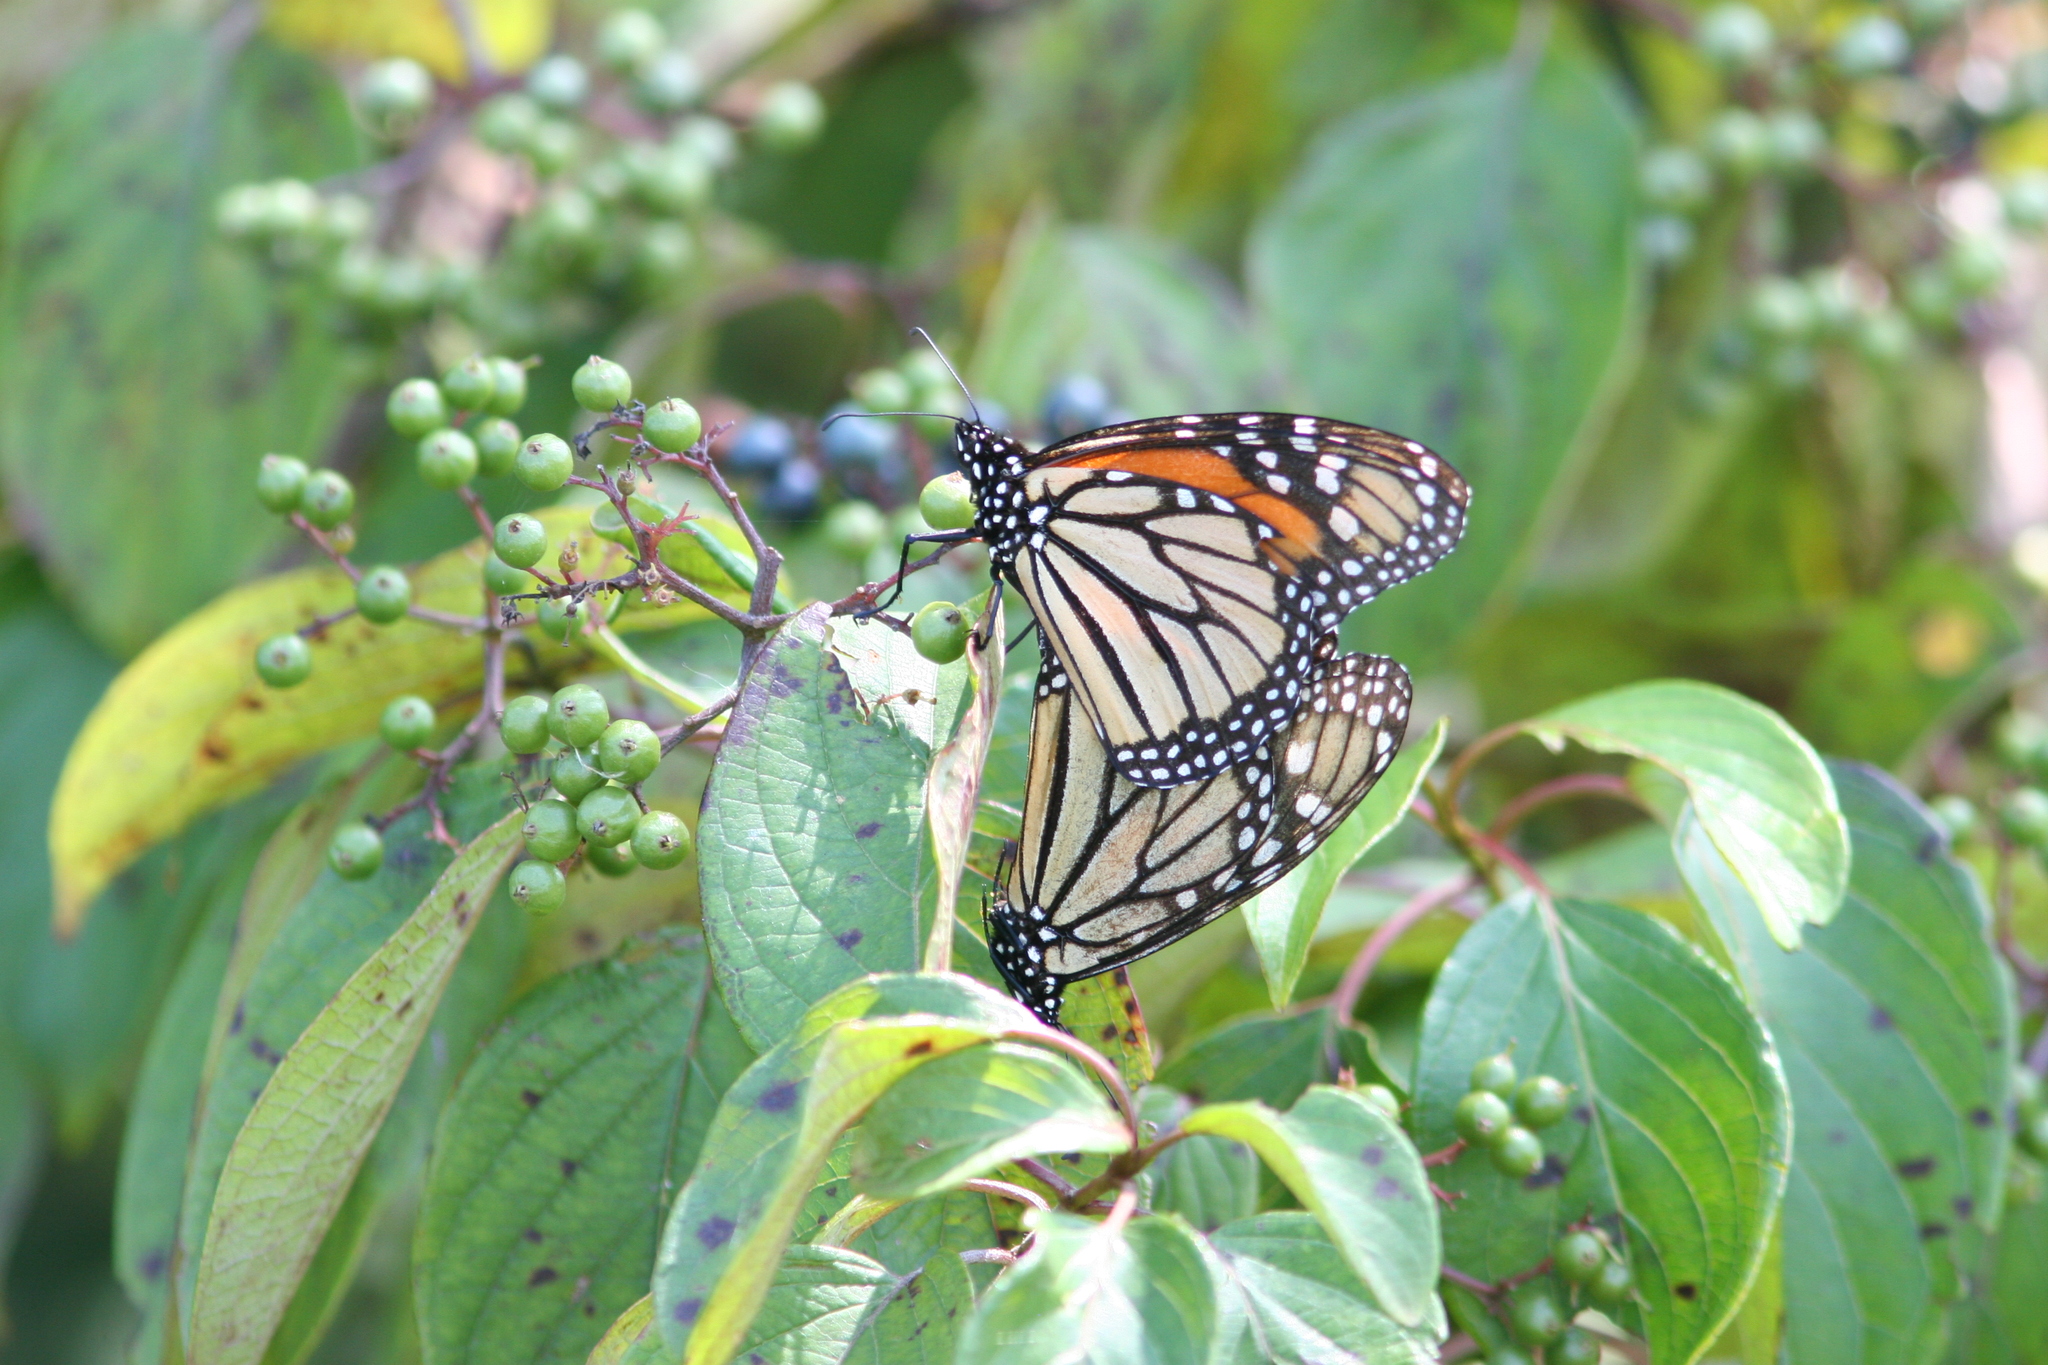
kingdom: Animalia
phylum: Arthropoda
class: Insecta
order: Lepidoptera
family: Nymphalidae
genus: Danaus
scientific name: Danaus plexippus
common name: Monarch
